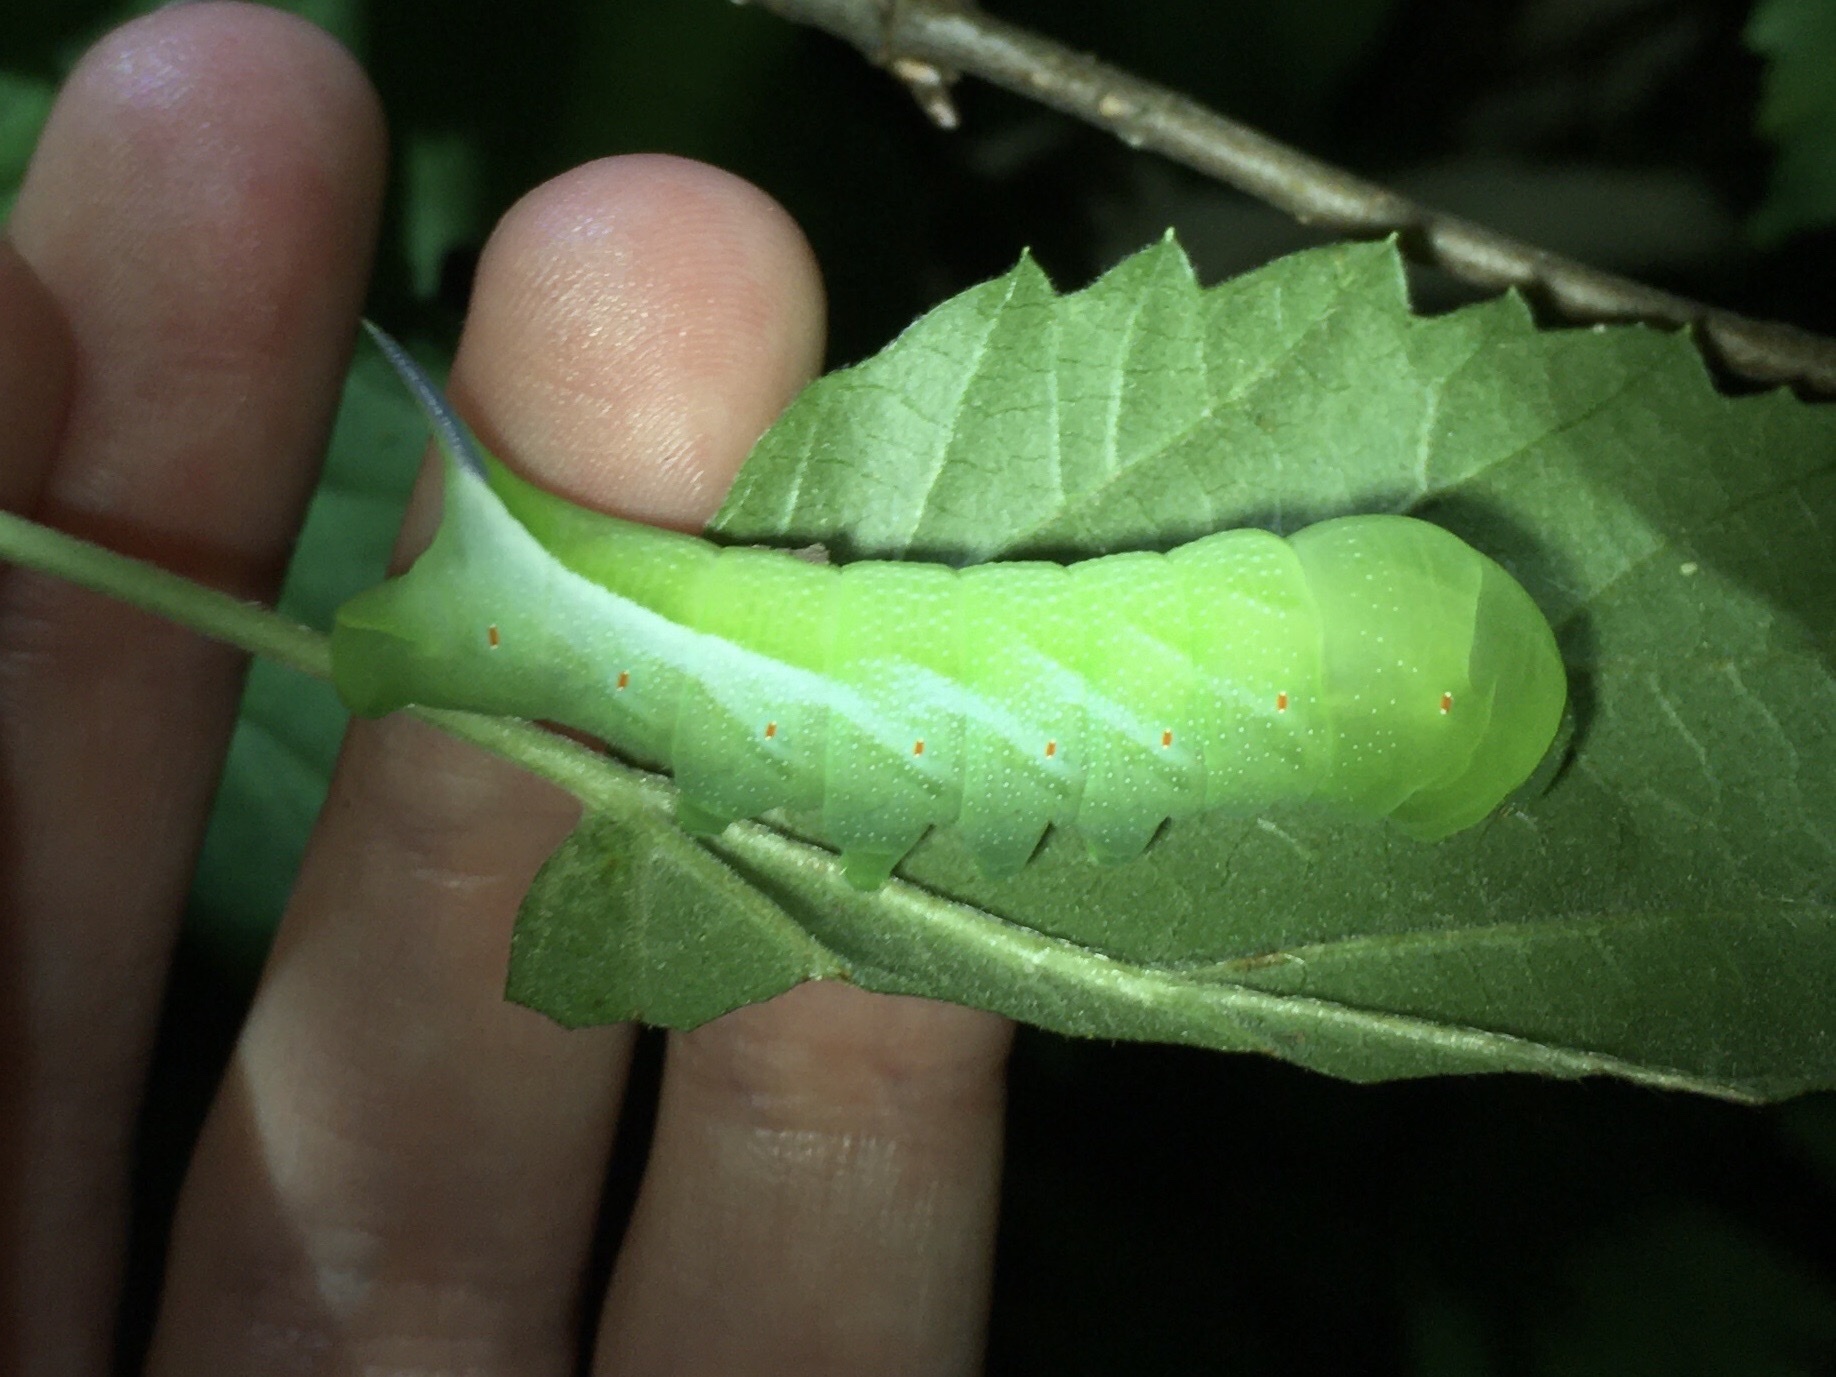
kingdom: Animalia
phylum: Arthropoda
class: Insecta
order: Lepidoptera
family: Sphingidae
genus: Darapsa
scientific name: Darapsa choerilus
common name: Azalea sphinx
